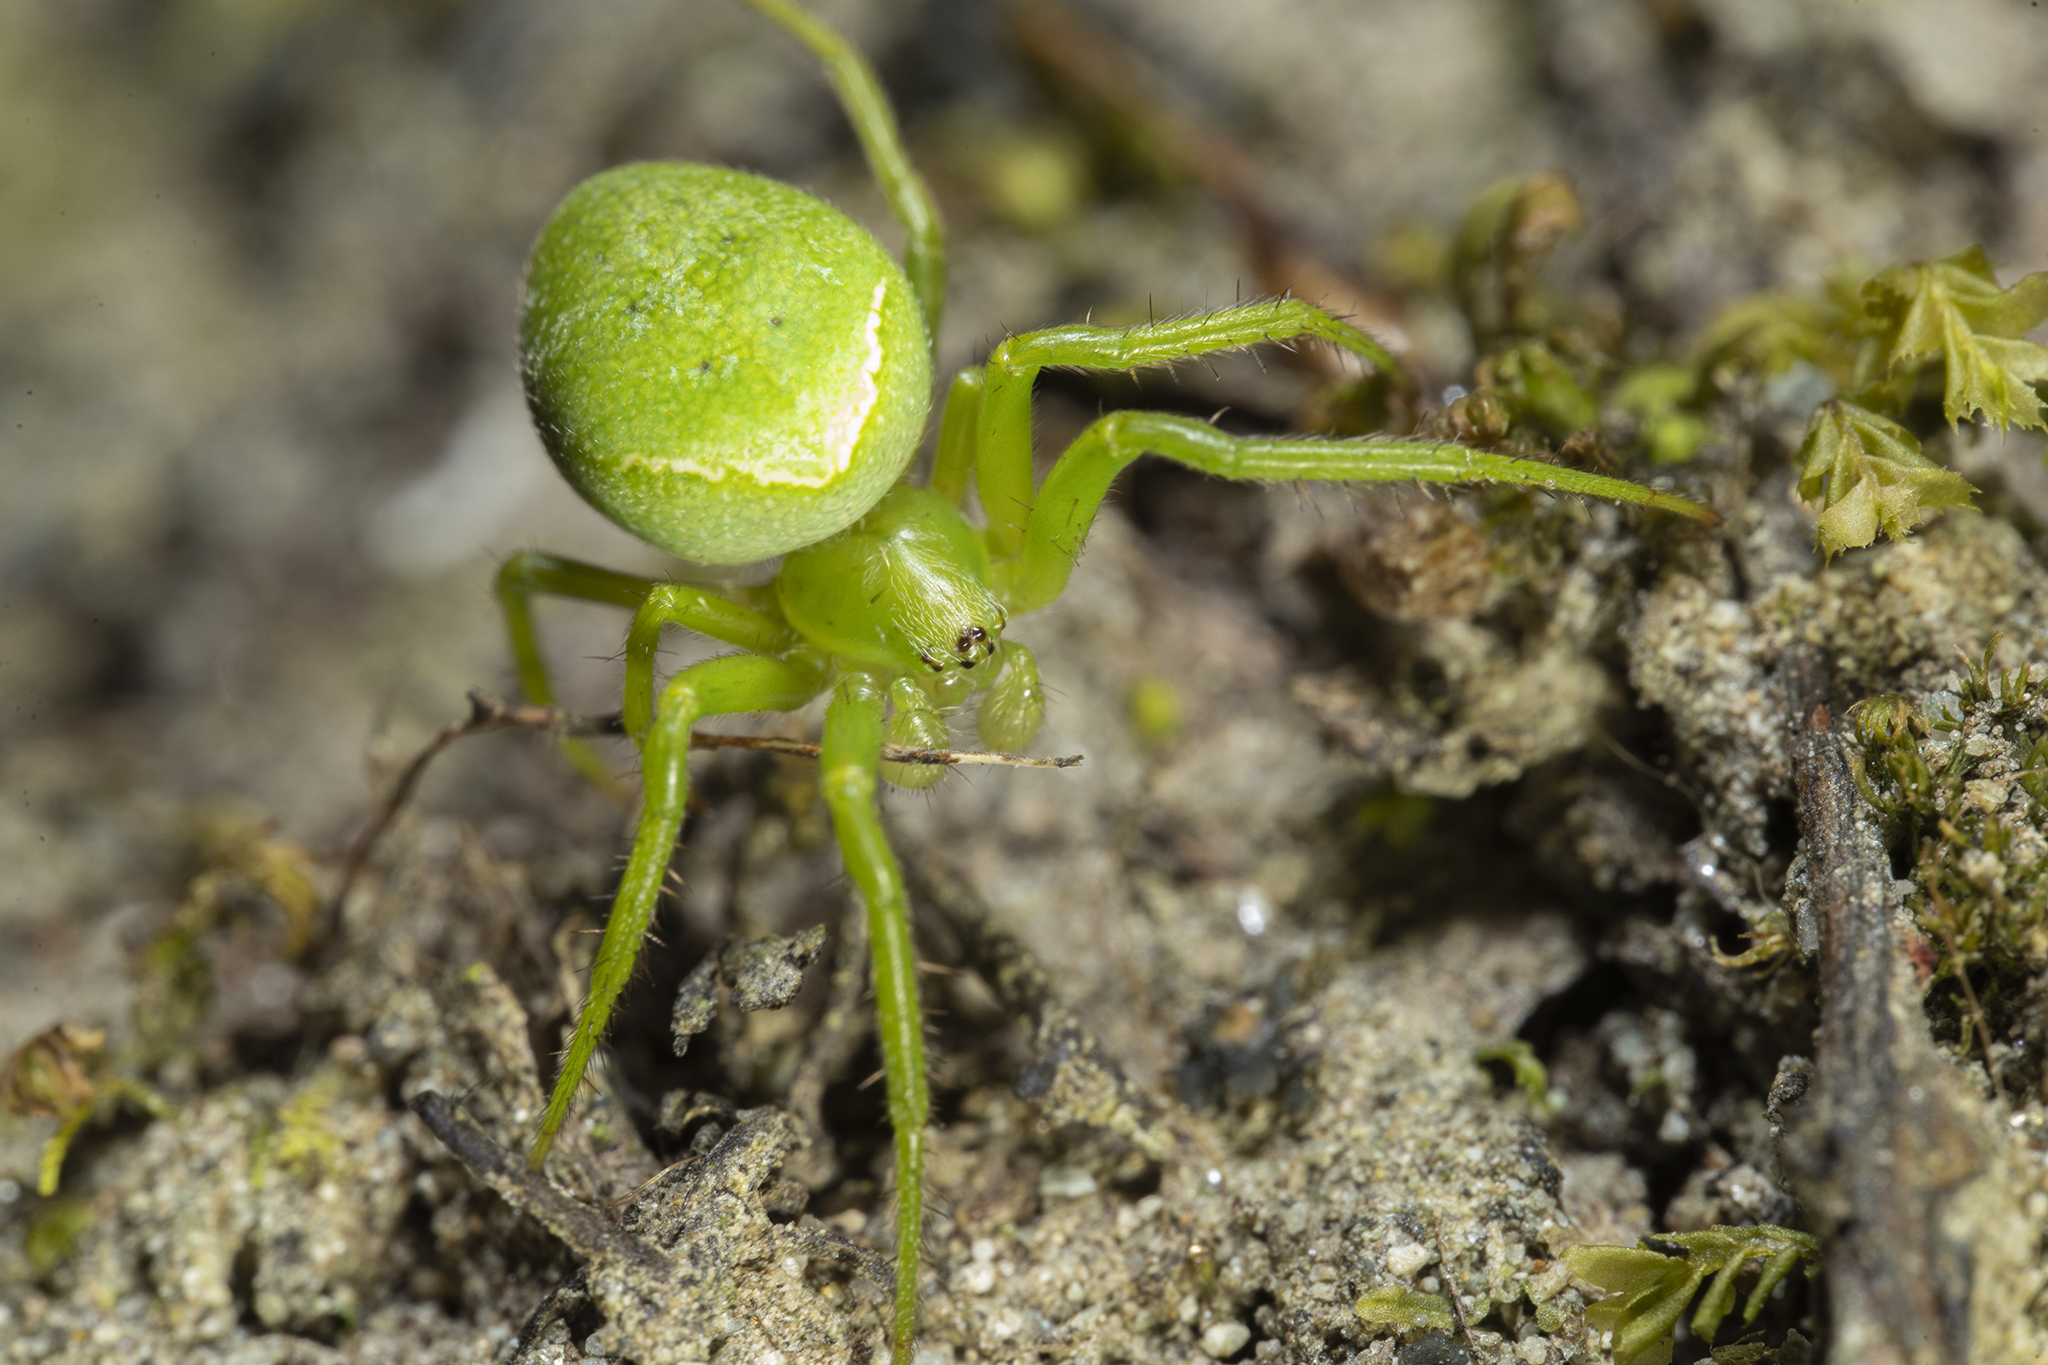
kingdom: Animalia
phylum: Arthropoda
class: Arachnida
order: Araneae
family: Araneidae
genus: Colaranea
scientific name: Colaranea viriditas
